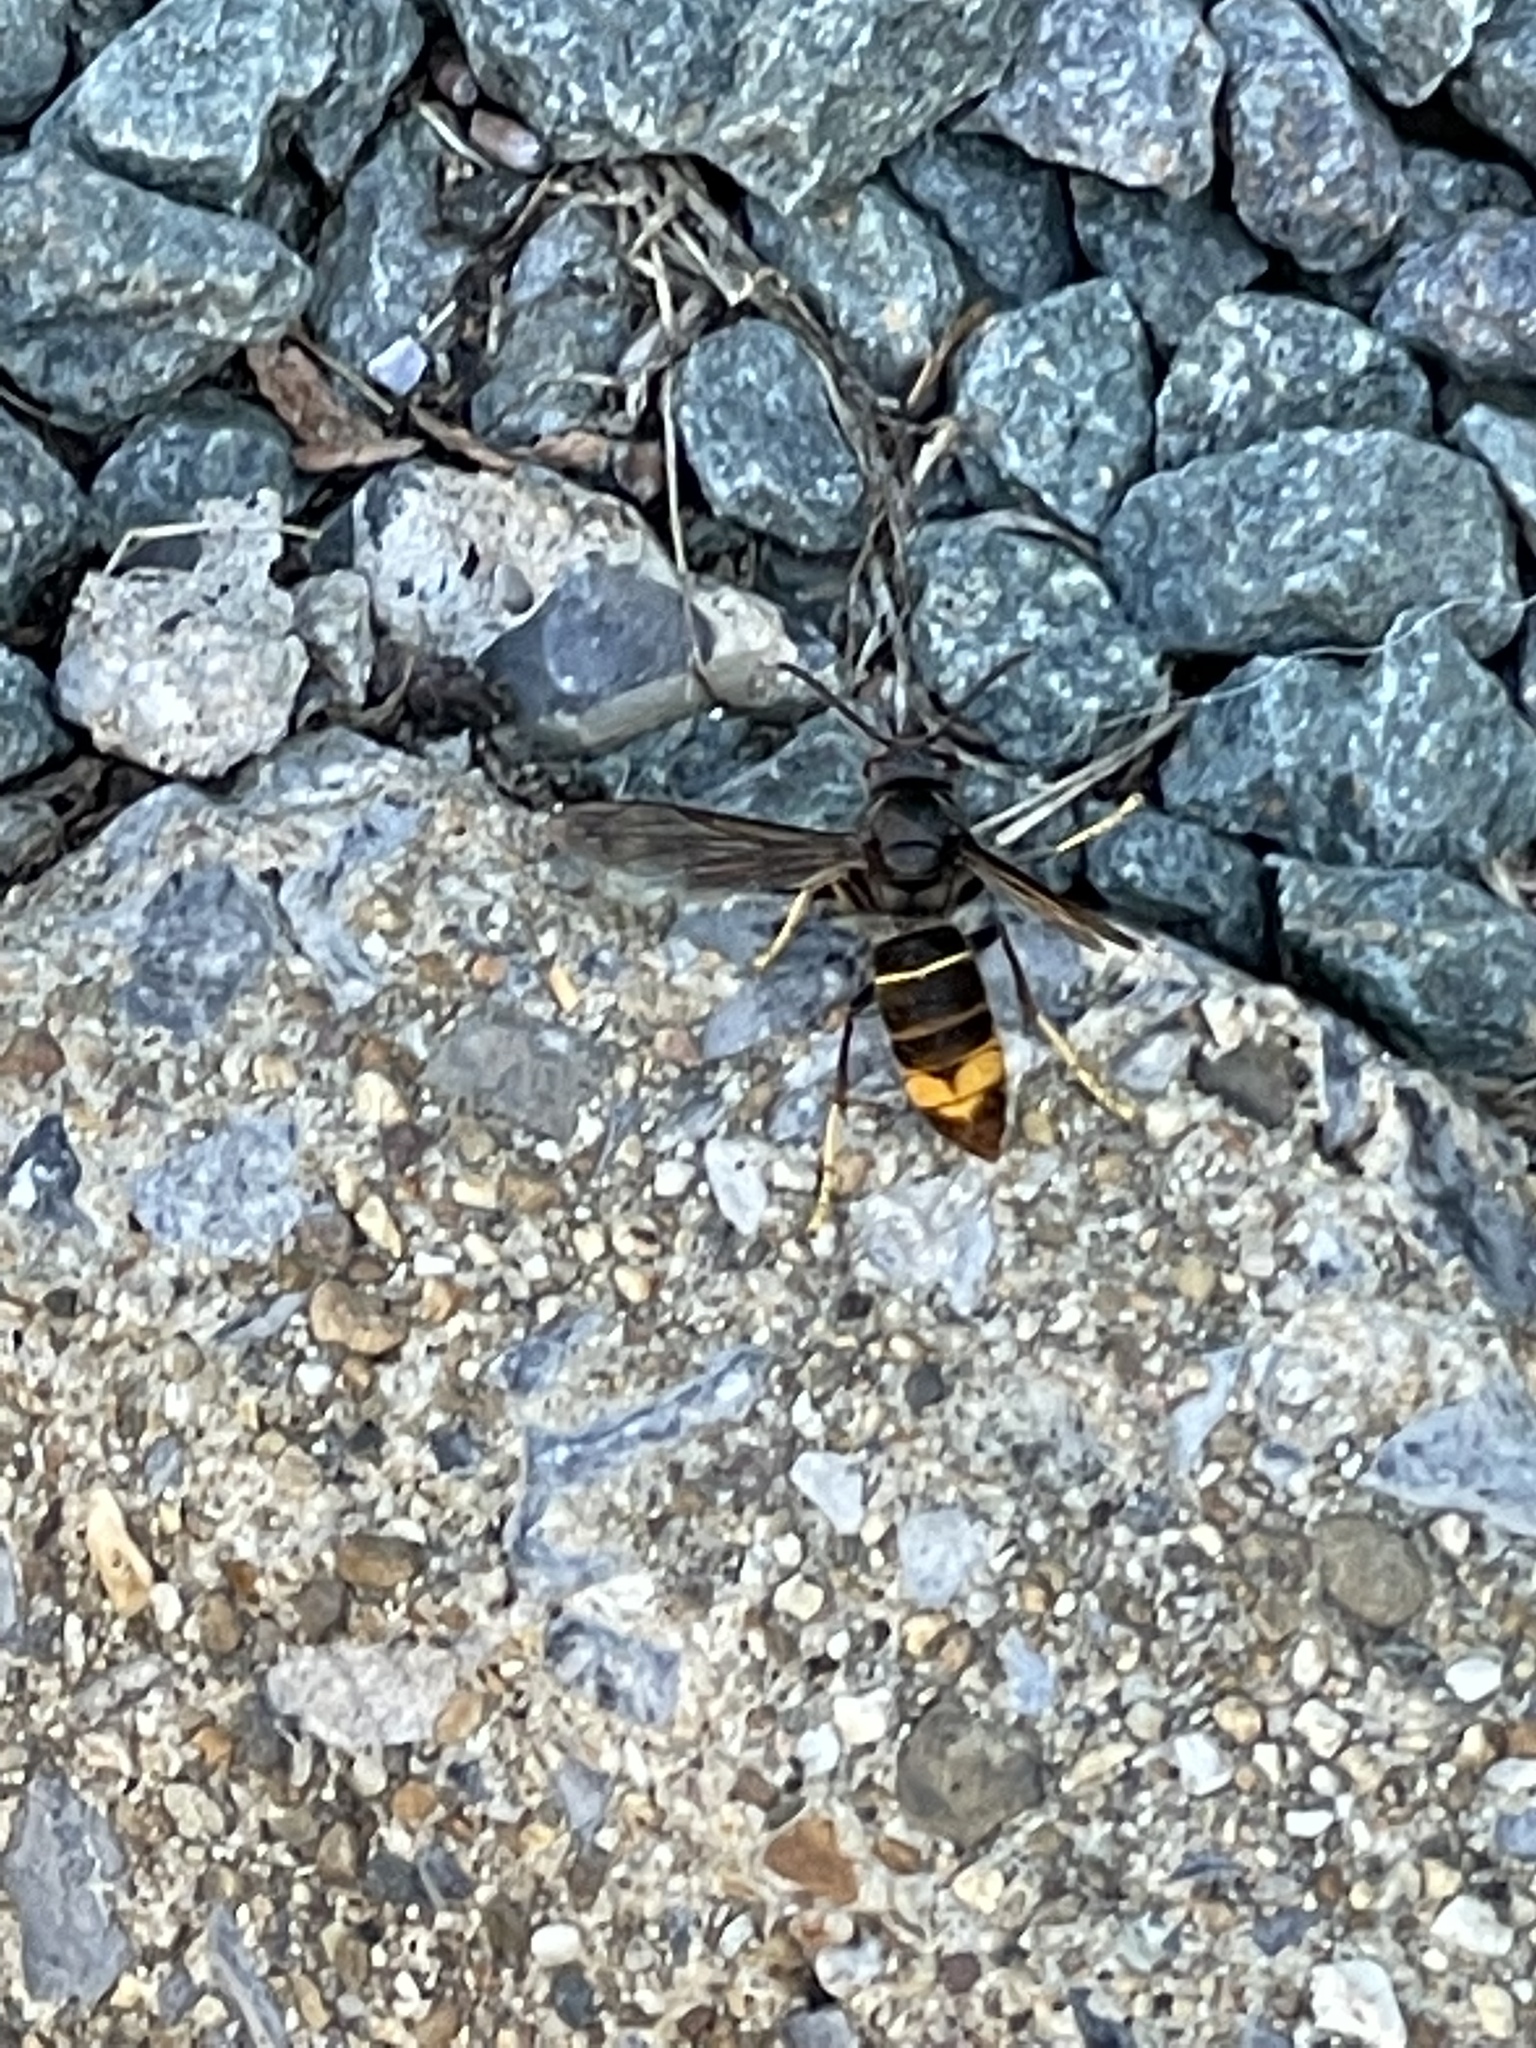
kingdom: Animalia
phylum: Arthropoda
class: Insecta
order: Hymenoptera
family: Vespidae
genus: Vespa
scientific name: Vespa velutina
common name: Asian hornet
